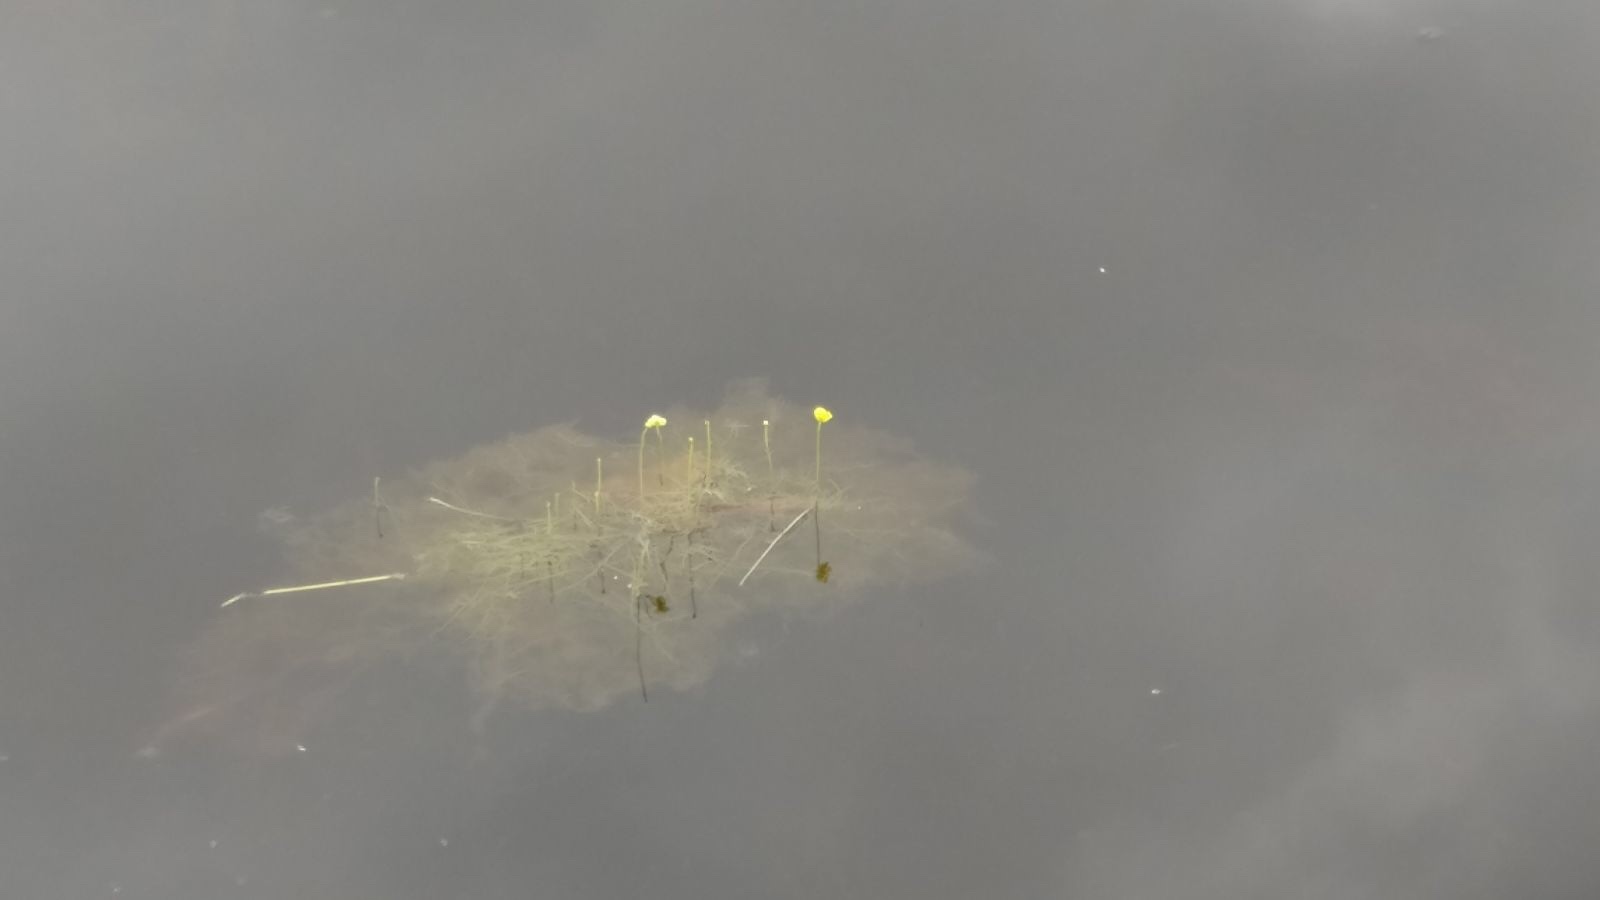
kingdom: Plantae
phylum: Tracheophyta
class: Magnoliopsida
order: Lamiales
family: Lentibulariaceae
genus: Utricularia
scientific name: Utricularia gibba
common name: Humped bladderwort
